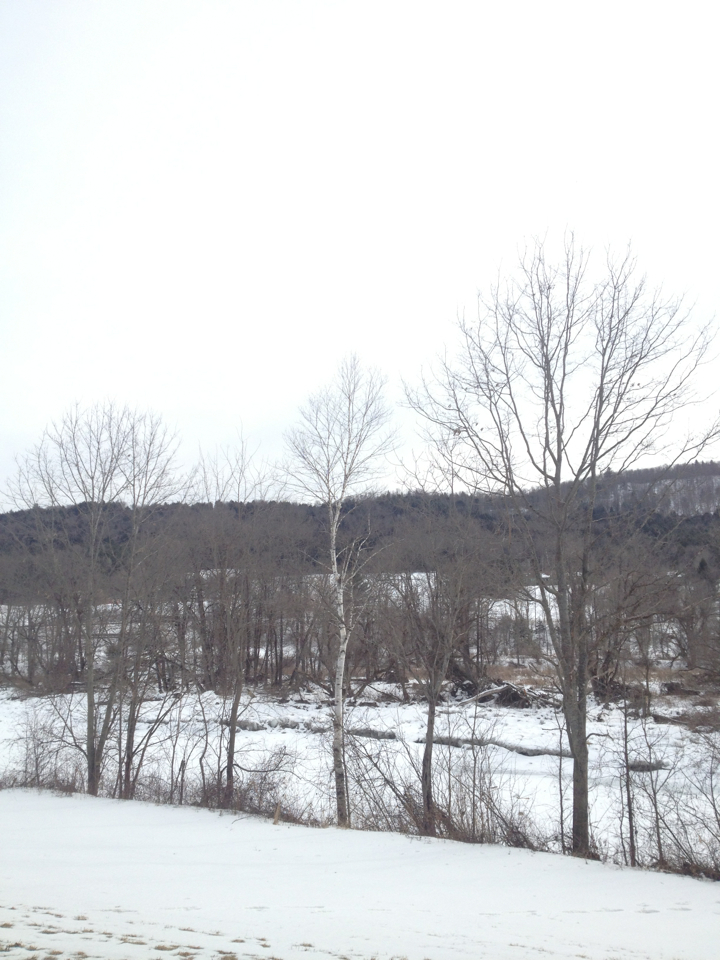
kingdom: Plantae
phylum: Tracheophyta
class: Magnoliopsida
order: Fagales
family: Betulaceae
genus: Betula
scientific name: Betula papyrifera
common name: Paper birch
